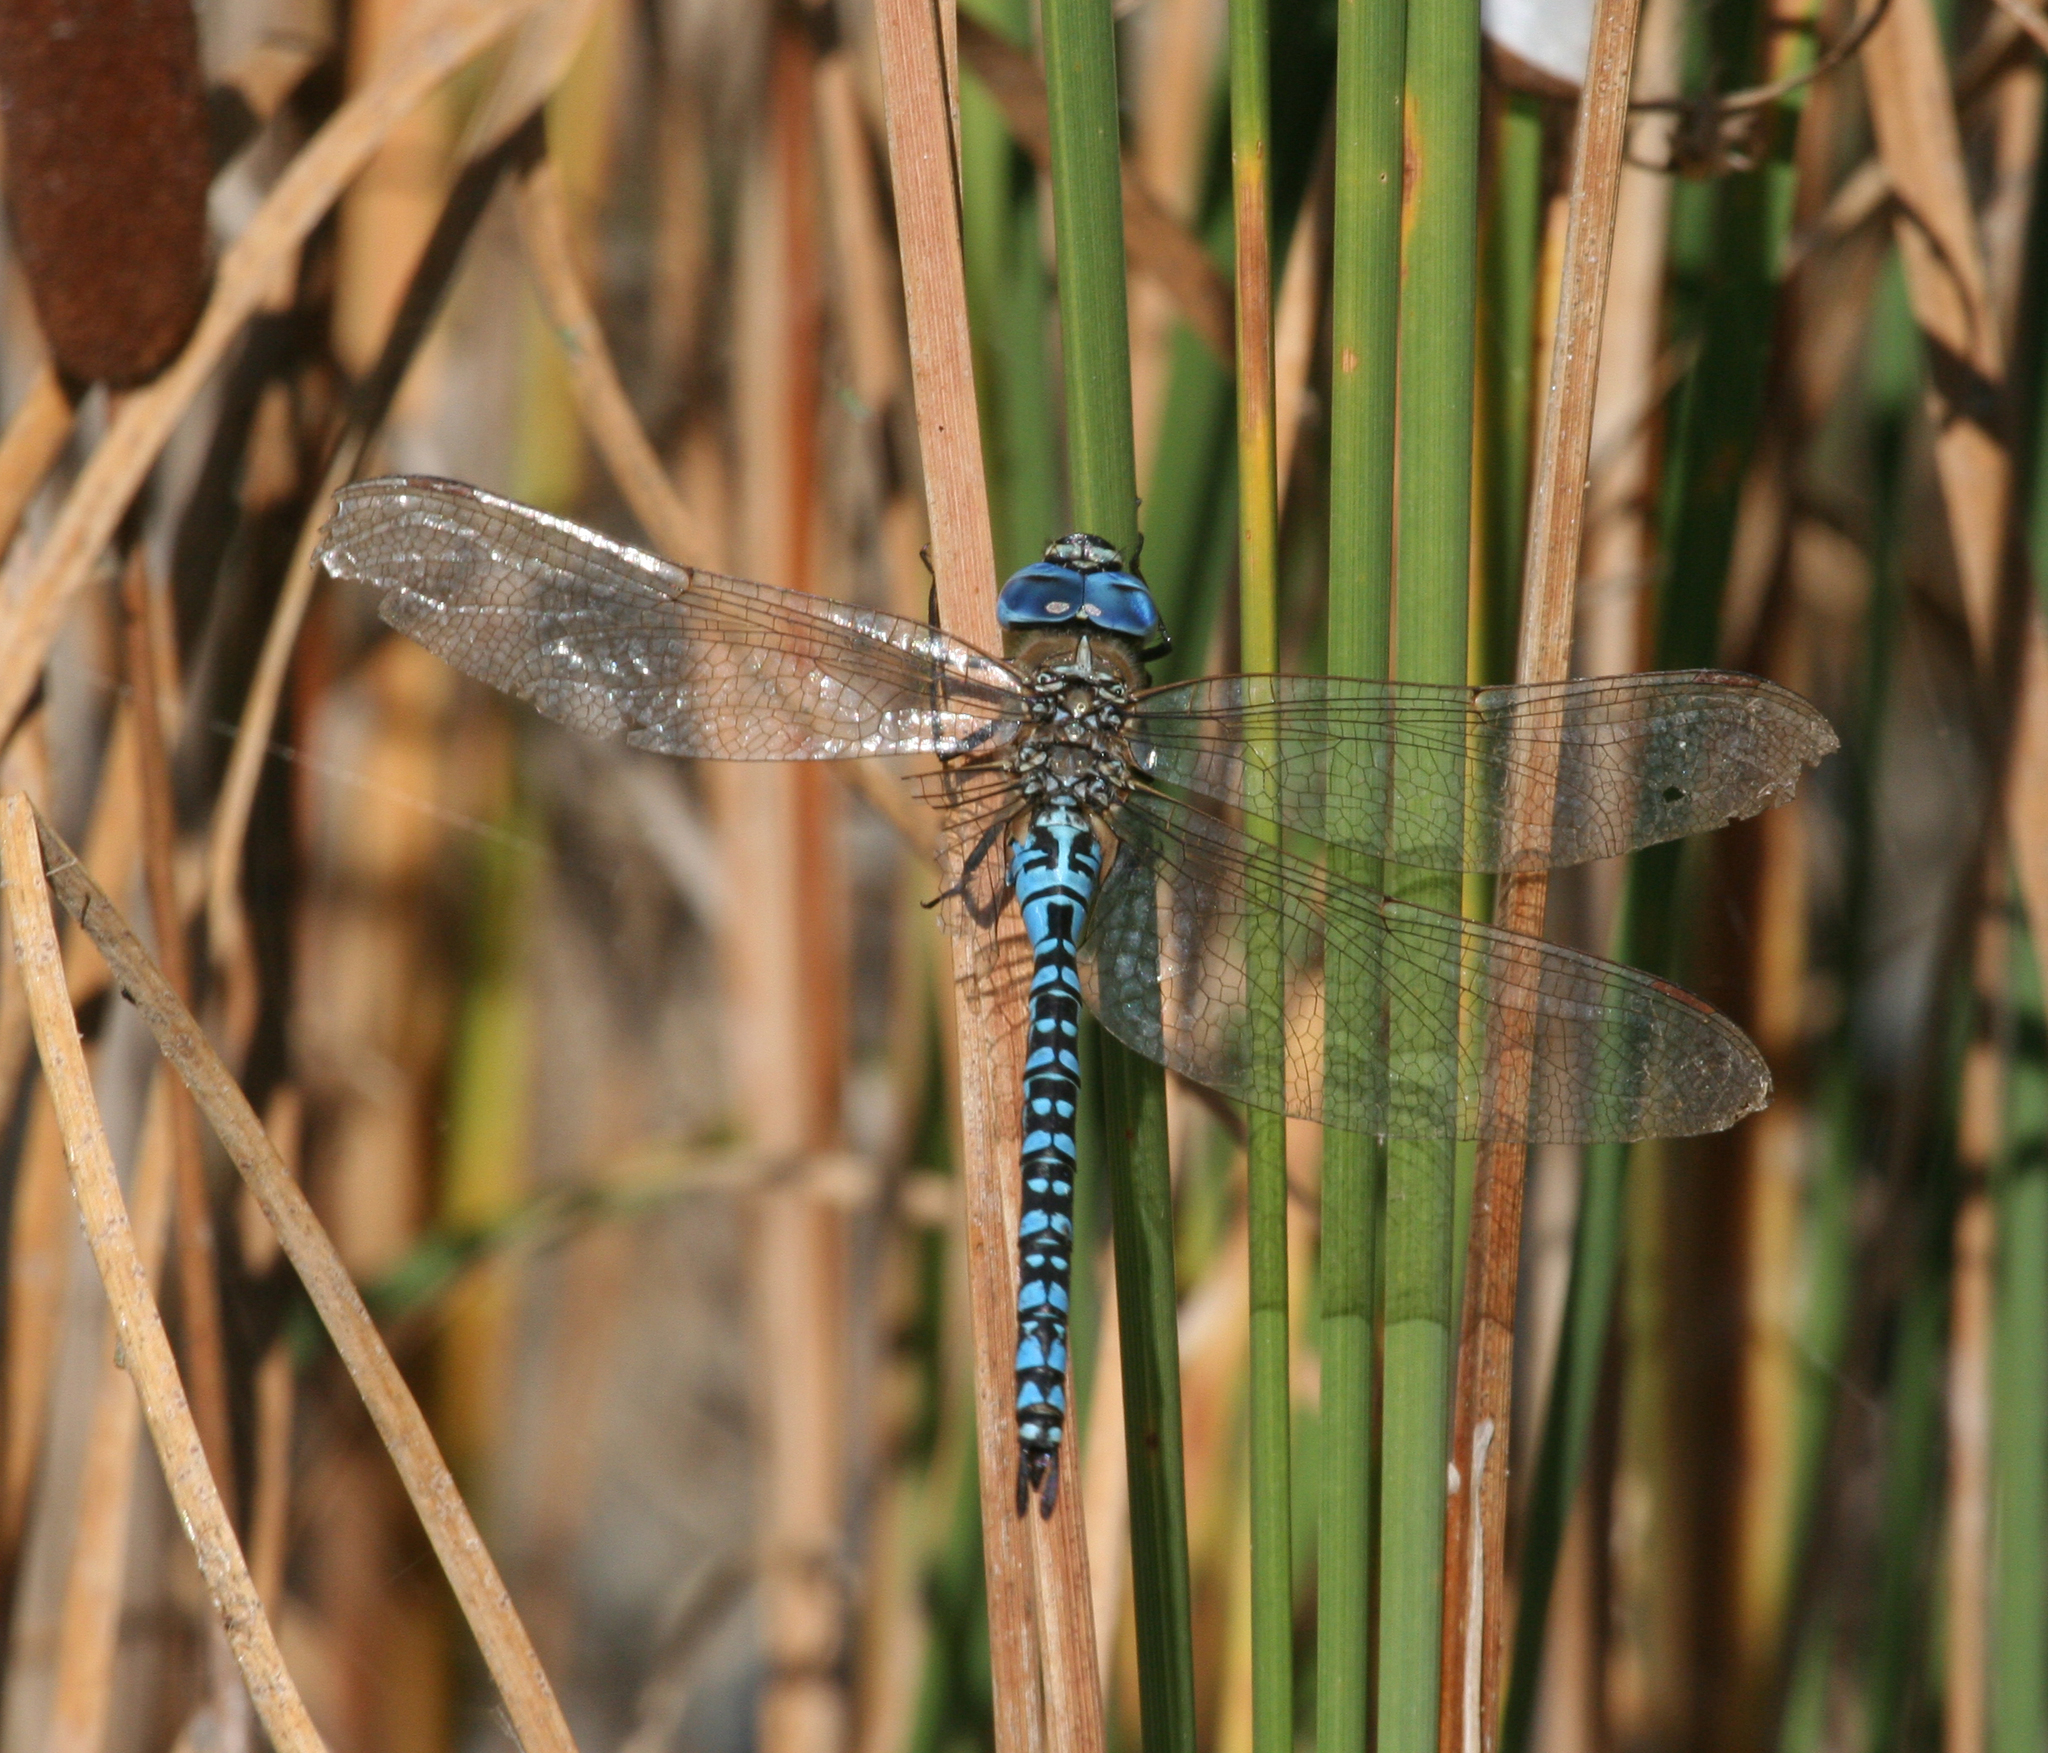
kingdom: Animalia
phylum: Arthropoda
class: Insecta
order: Odonata
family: Aeshnidae
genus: Aeshna
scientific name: Aeshna affinis
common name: Southern migrant hawker
